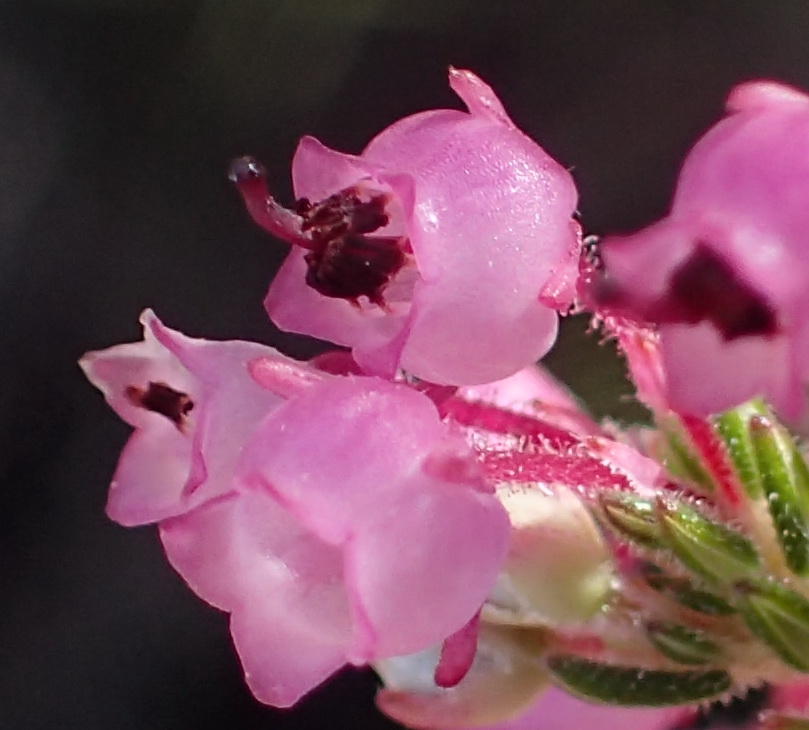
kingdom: Plantae
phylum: Tracheophyta
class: Magnoliopsida
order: Ericales
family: Ericaceae
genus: Erica
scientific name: Erica grata
